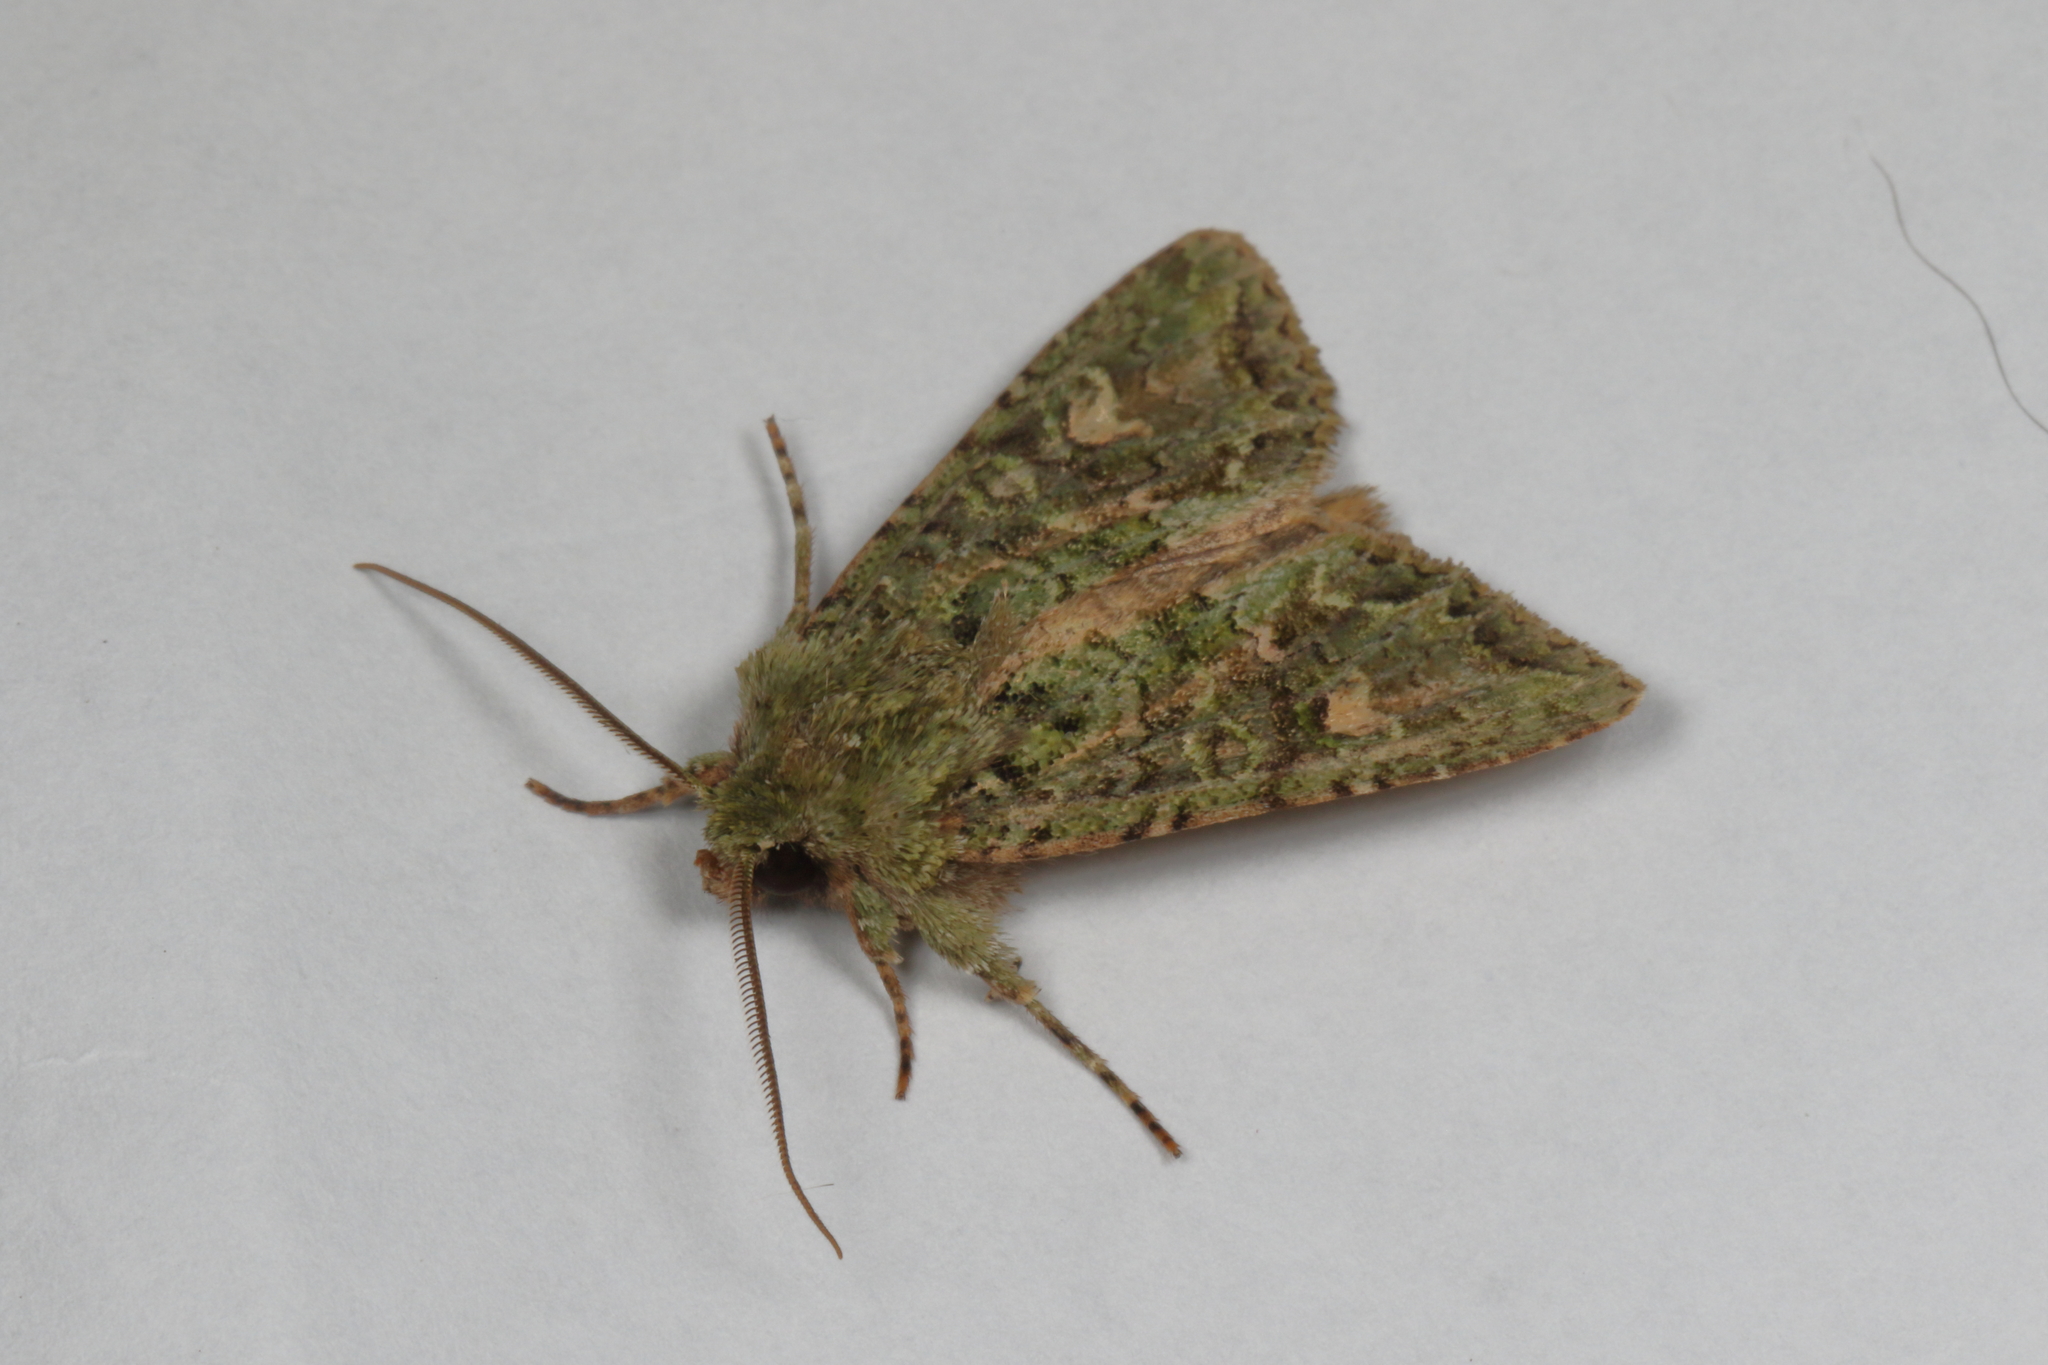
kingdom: Animalia
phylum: Arthropoda
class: Insecta
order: Lepidoptera
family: Noctuidae
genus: Ichneutica
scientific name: Ichneutica
